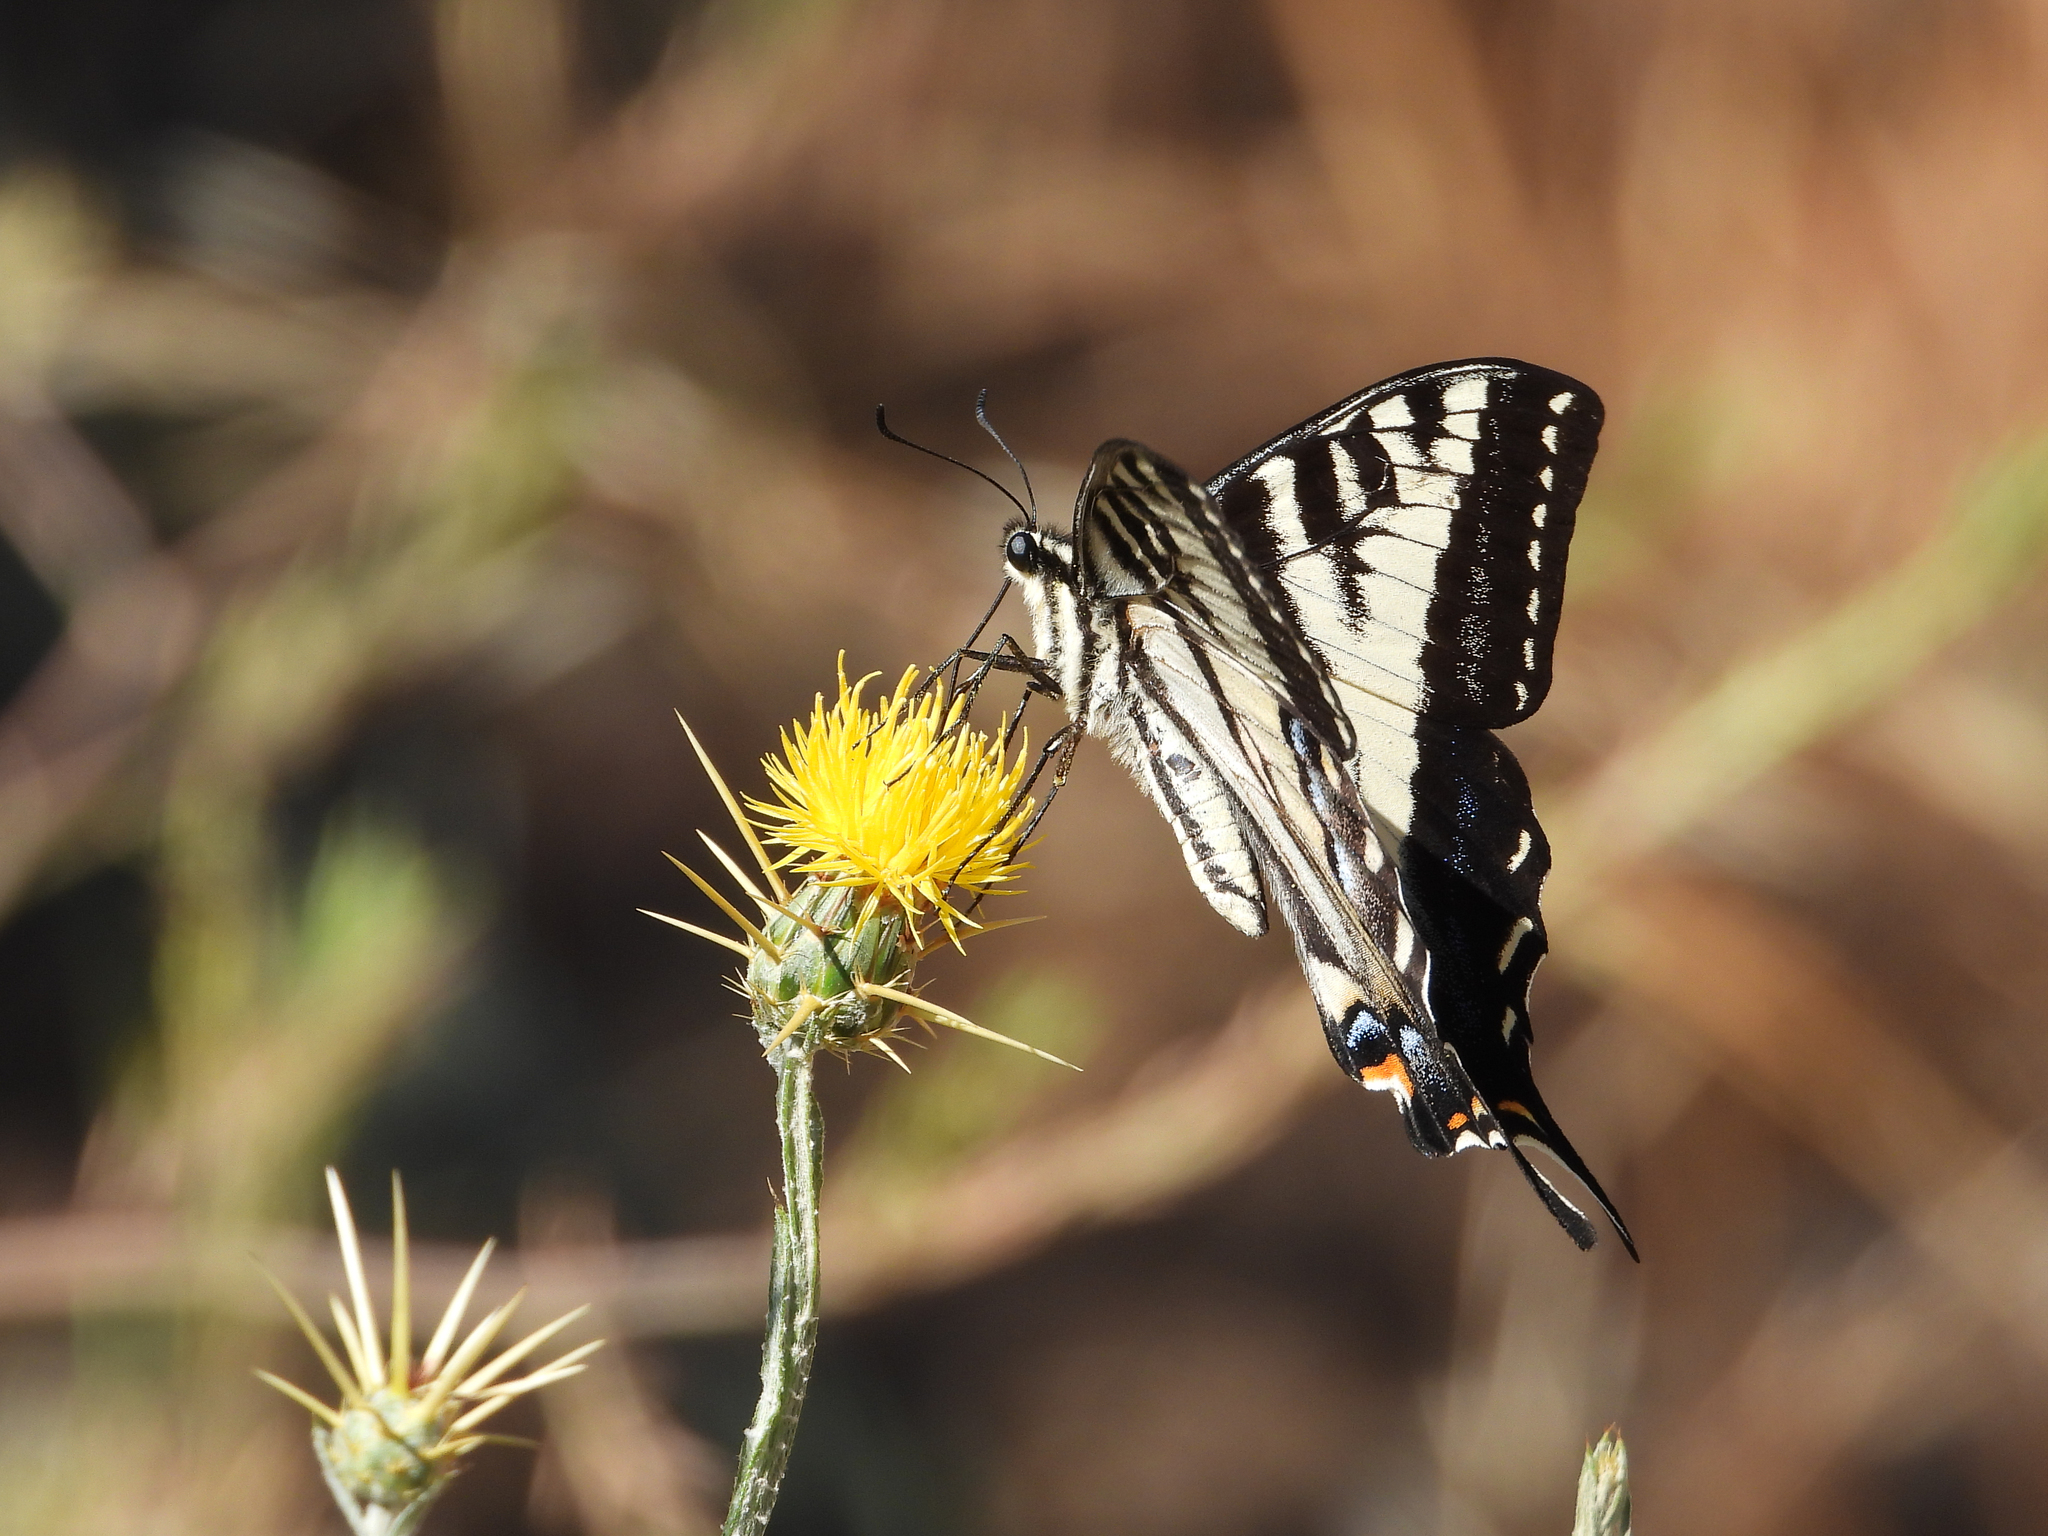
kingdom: Animalia
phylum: Arthropoda
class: Insecta
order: Lepidoptera
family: Papilionidae
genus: Papilio
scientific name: Papilio eurymedon
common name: Pale tiger swallowtail
